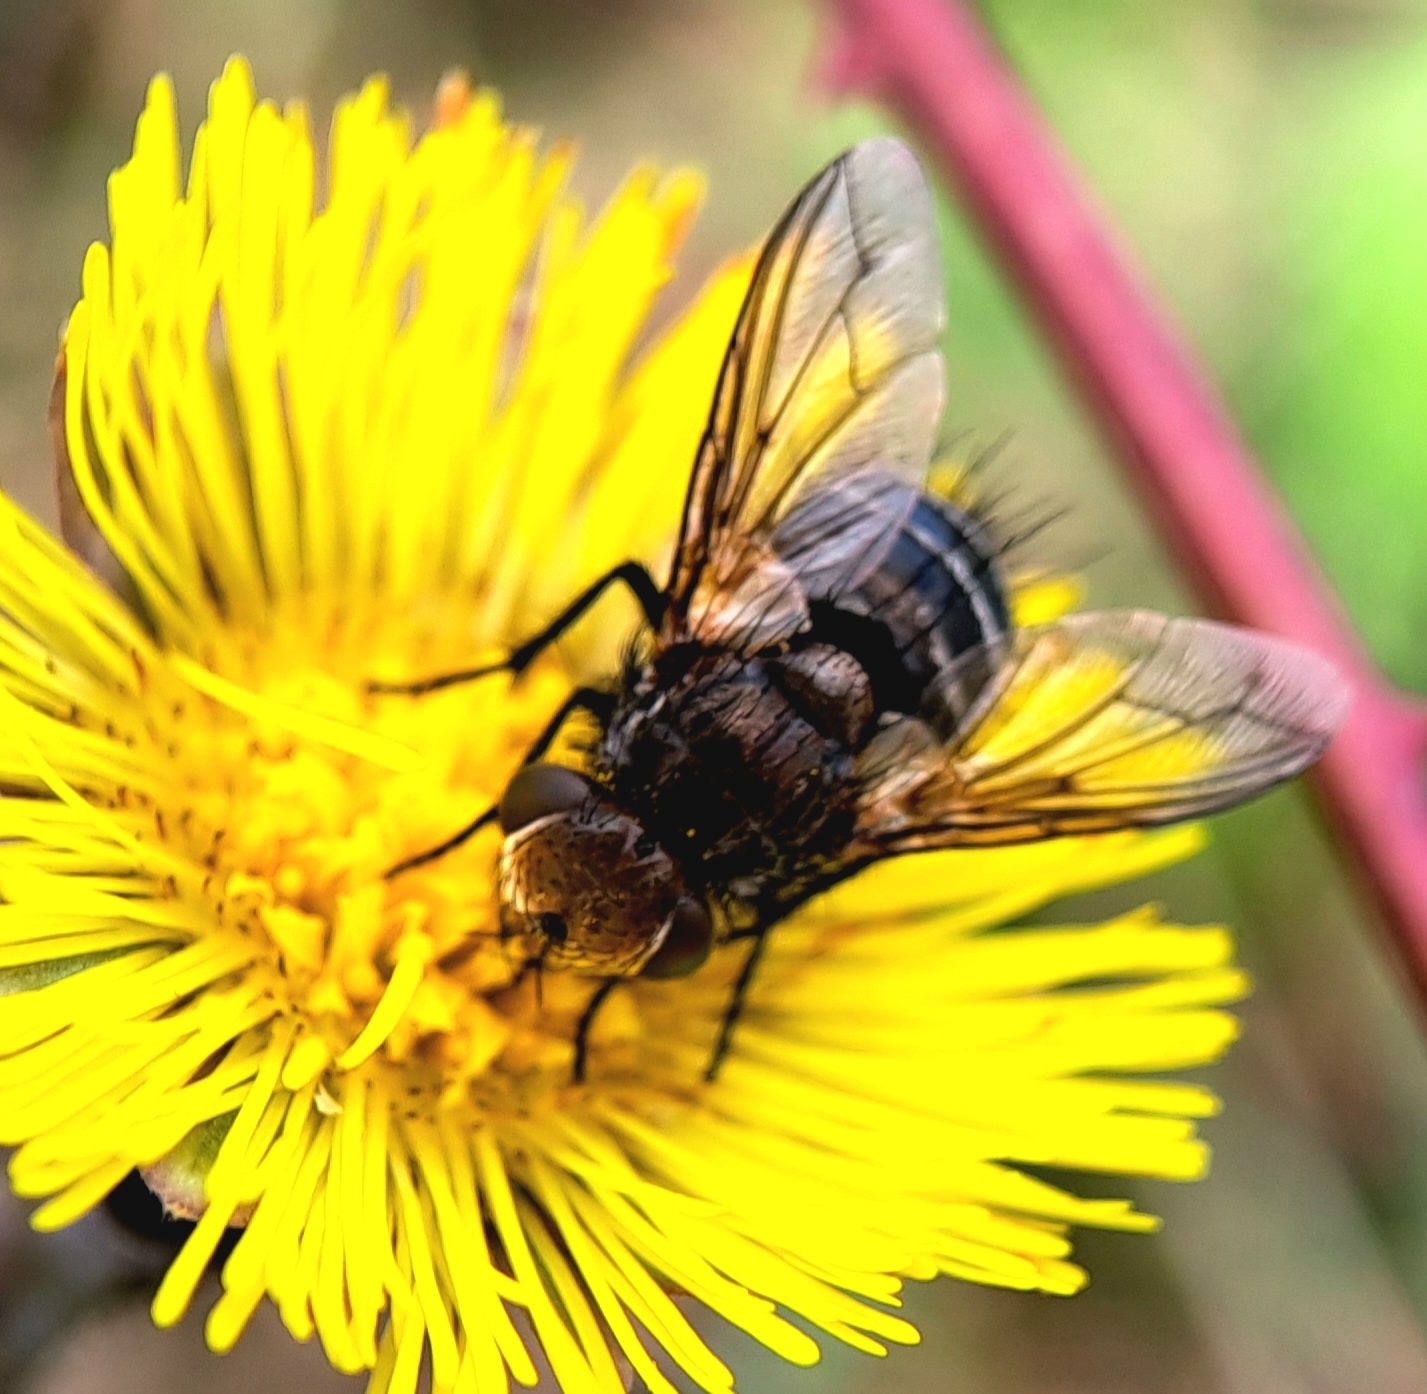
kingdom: Animalia
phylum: Arthropoda
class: Insecta
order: Diptera
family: Tachinidae
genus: Gonia
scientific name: Gonia picea
